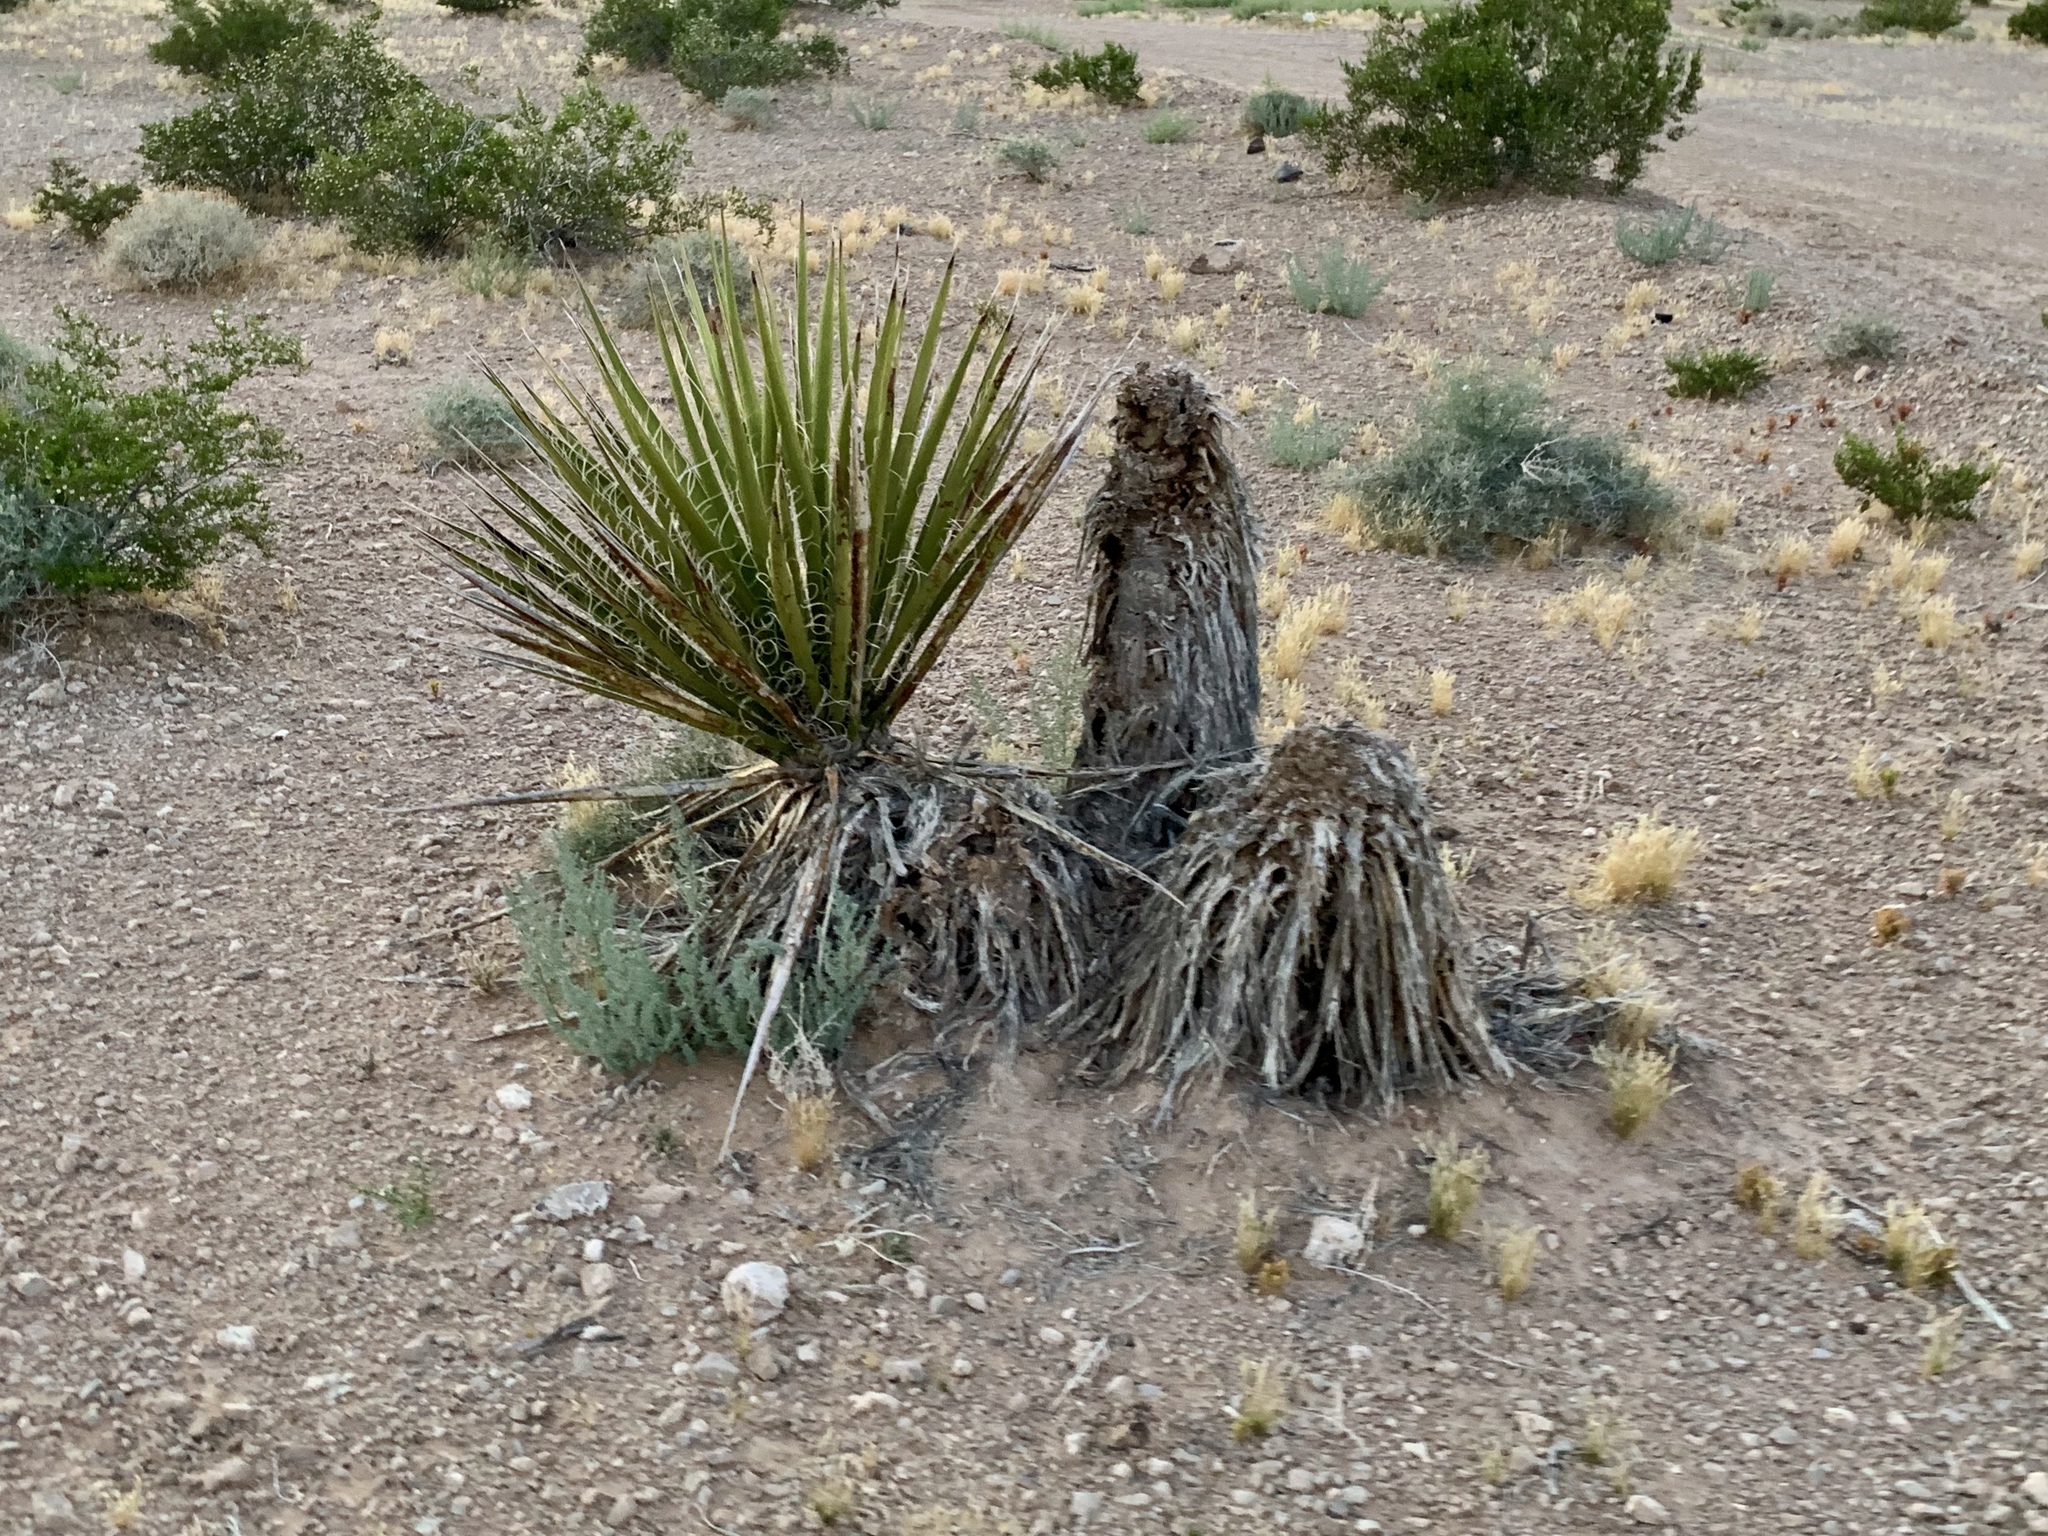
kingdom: Plantae
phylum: Tracheophyta
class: Liliopsida
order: Asparagales
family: Asparagaceae
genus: Yucca
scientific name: Yucca schidigera
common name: Mojave yucca
